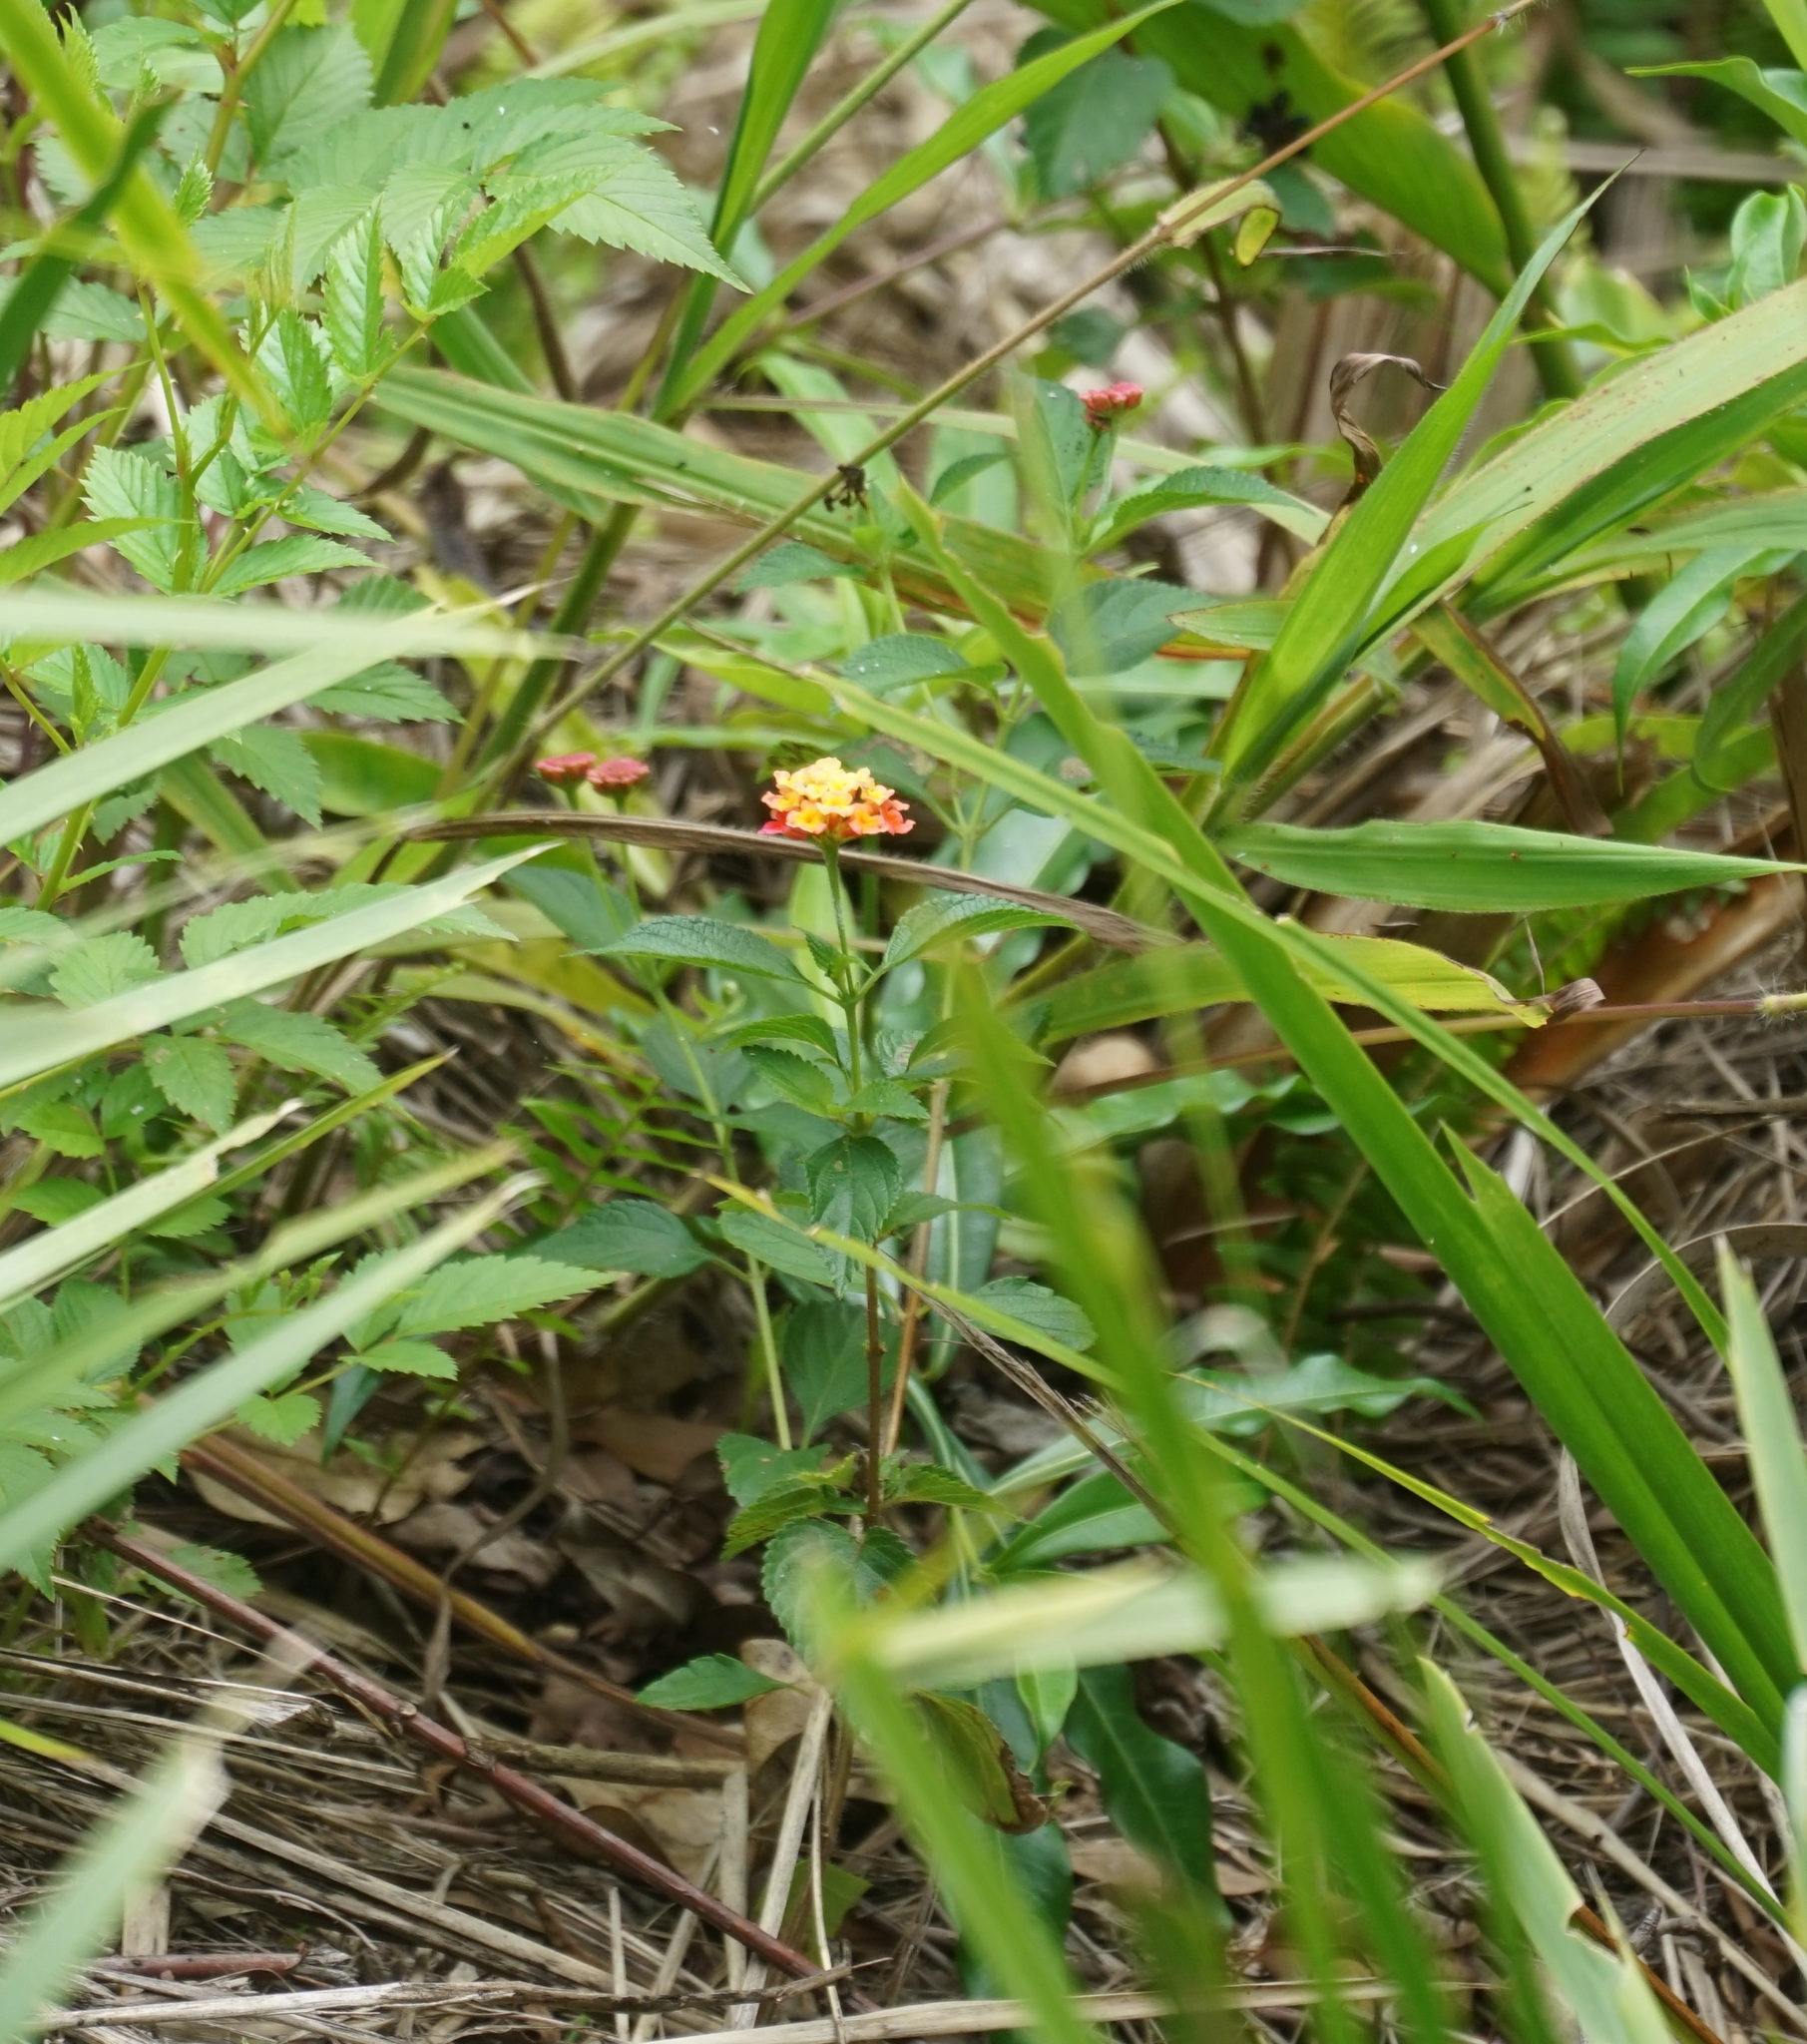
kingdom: Plantae
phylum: Tracheophyta
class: Magnoliopsida
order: Lamiales
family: Verbenaceae
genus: Lantana
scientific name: Lantana camara
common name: Lantana
